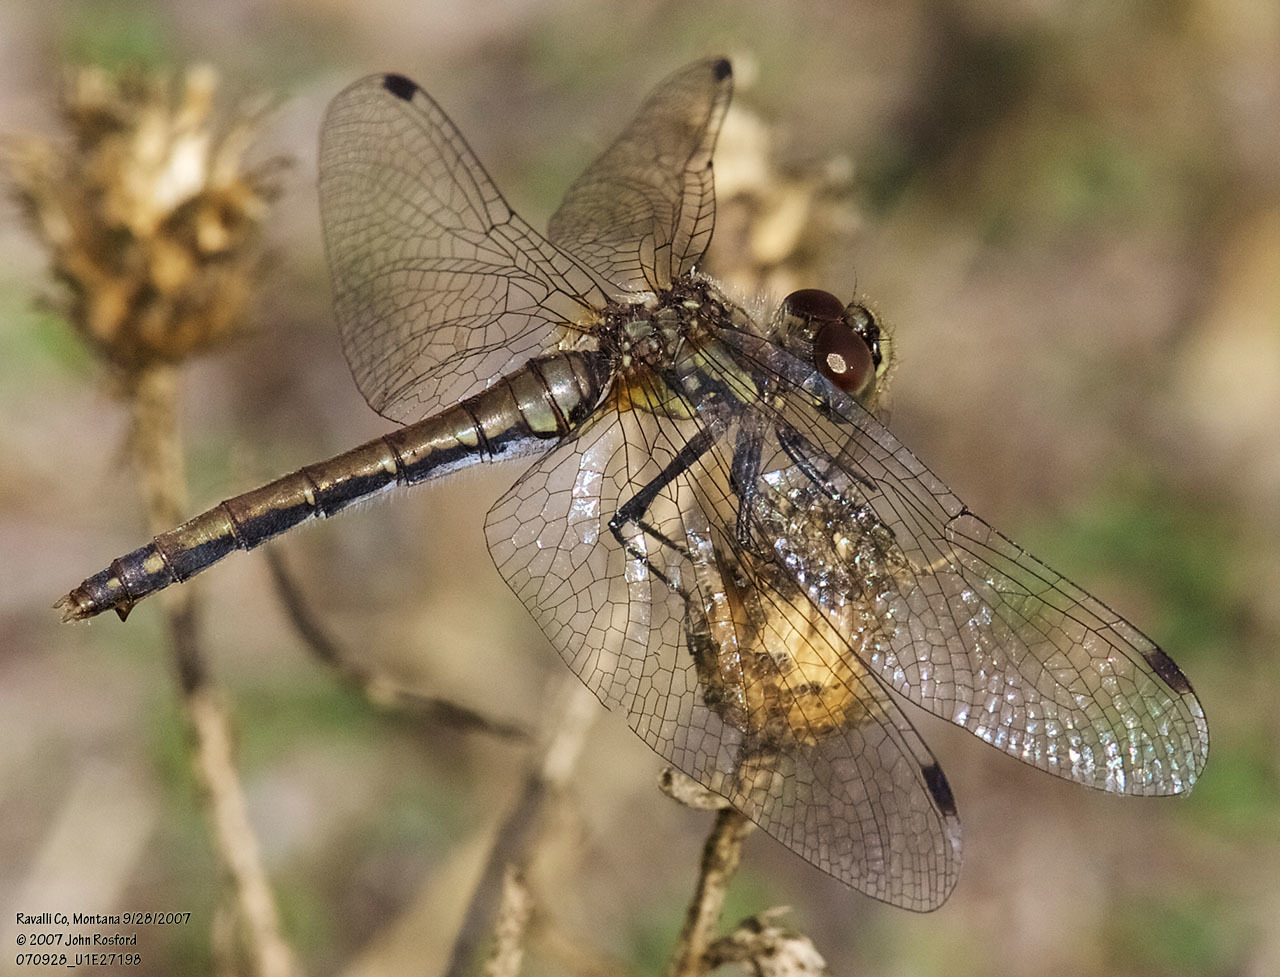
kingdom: Animalia
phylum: Arthropoda
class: Insecta
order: Odonata
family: Libellulidae
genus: Sympetrum
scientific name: Sympetrum danae
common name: Black darter
